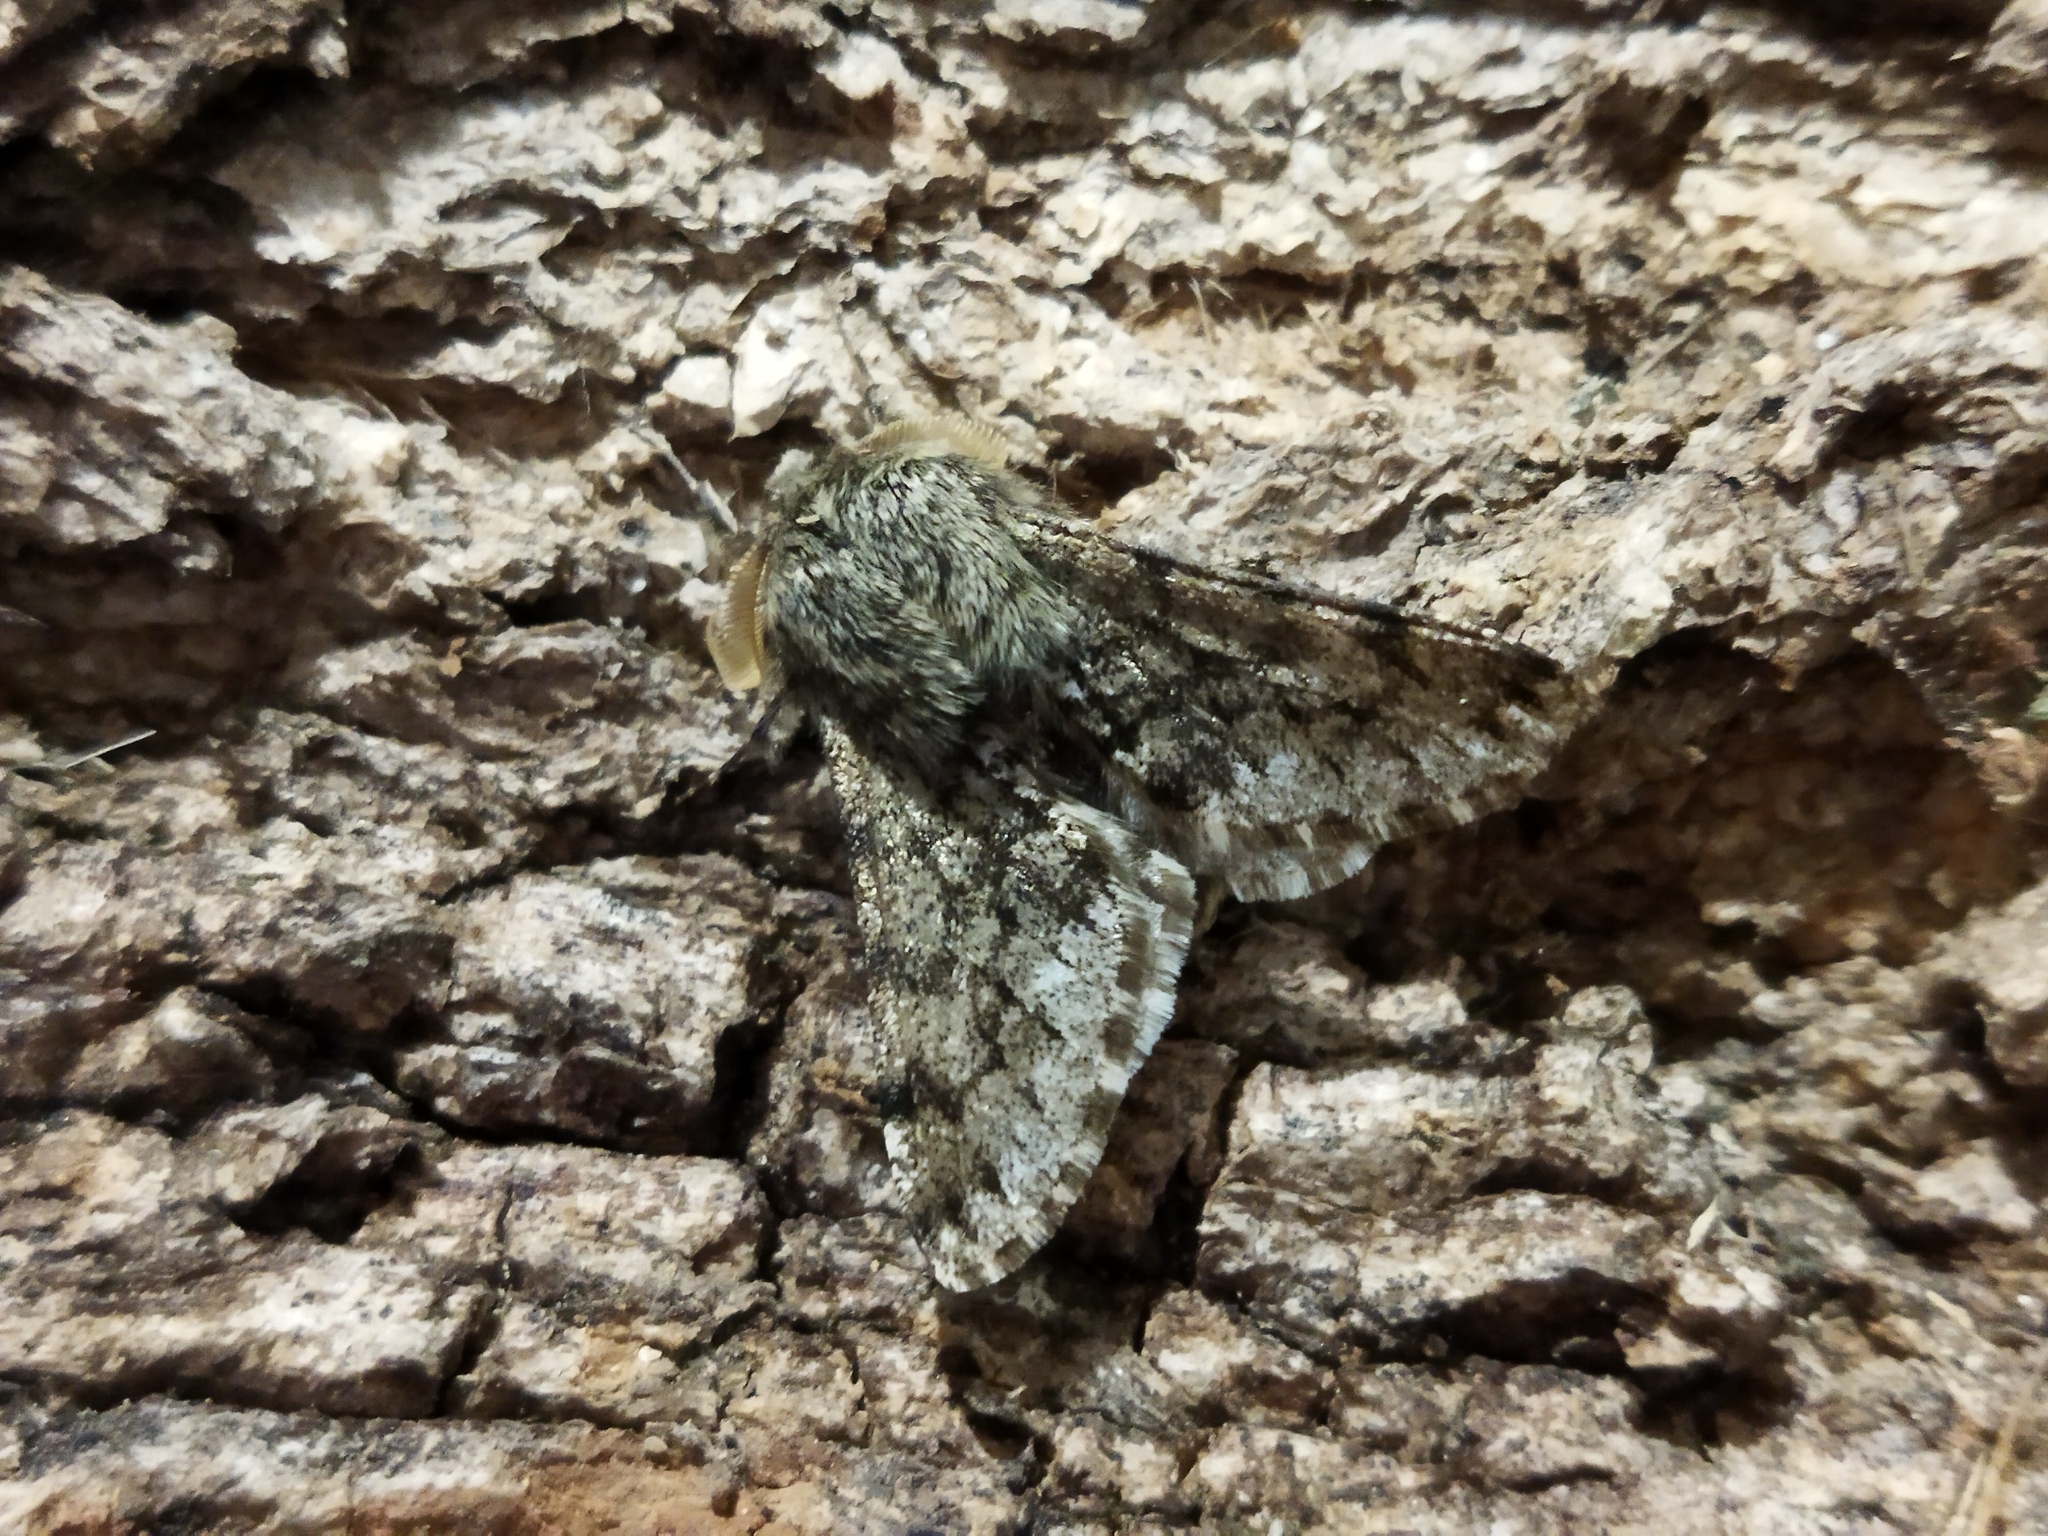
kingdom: Animalia
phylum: Arthropoda
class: Insecta
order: Lepidoptera
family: Geometridae
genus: Apocheima
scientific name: Apocheima hispidaria
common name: Small brindled beauty
